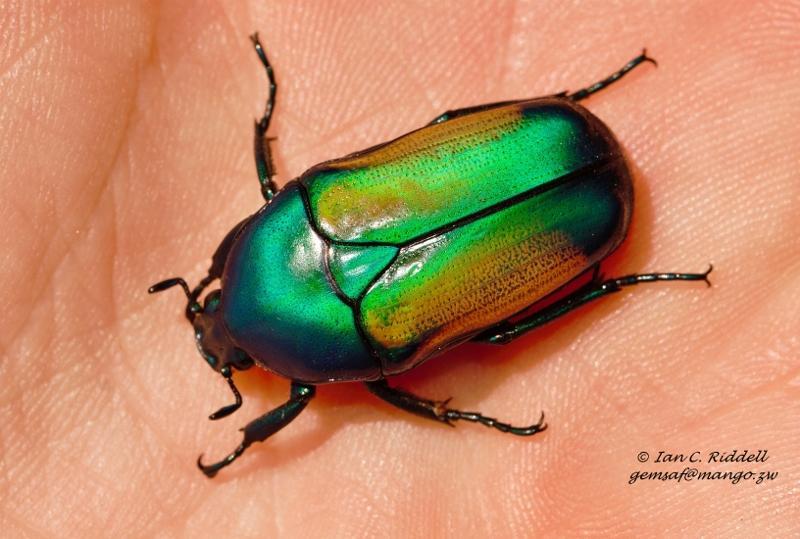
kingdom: Animalia
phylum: Arthropoda
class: Insecta
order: Coleoptera
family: Scarabaeidae
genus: Chlorocala
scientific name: Chlorocala africana
